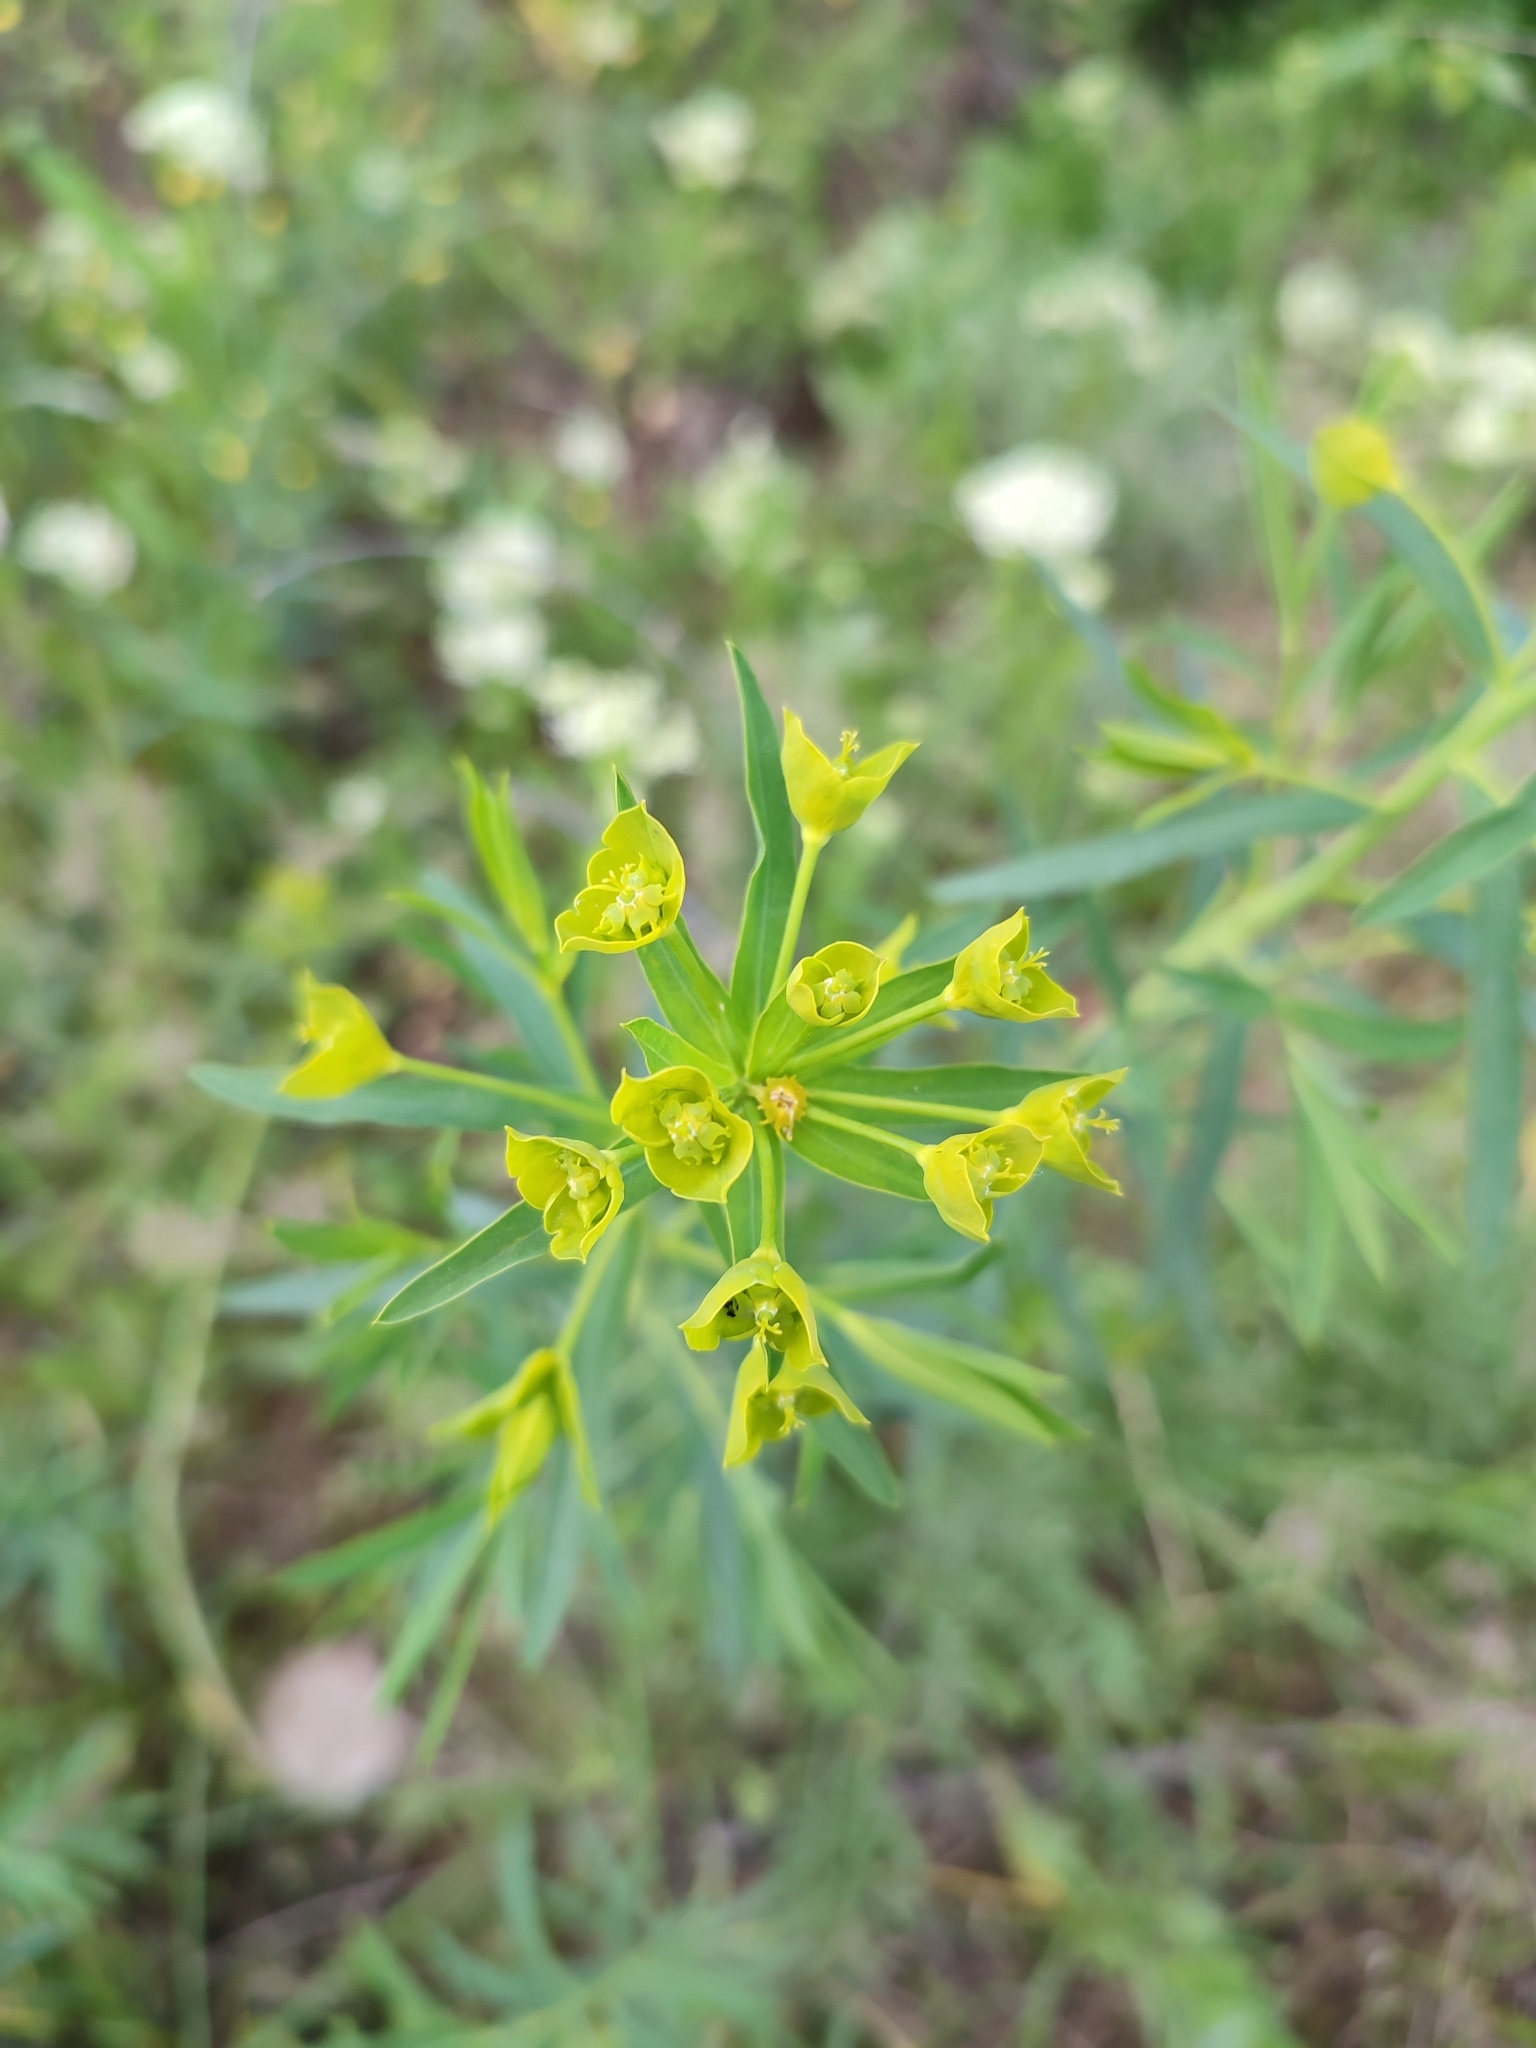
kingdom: Plantae
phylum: Tracheophyta
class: Magnoliopsida
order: Malpighiales
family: Euphorbiaceae
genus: Euphorbia
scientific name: Euphorbia virgata
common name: Leafy spurge
